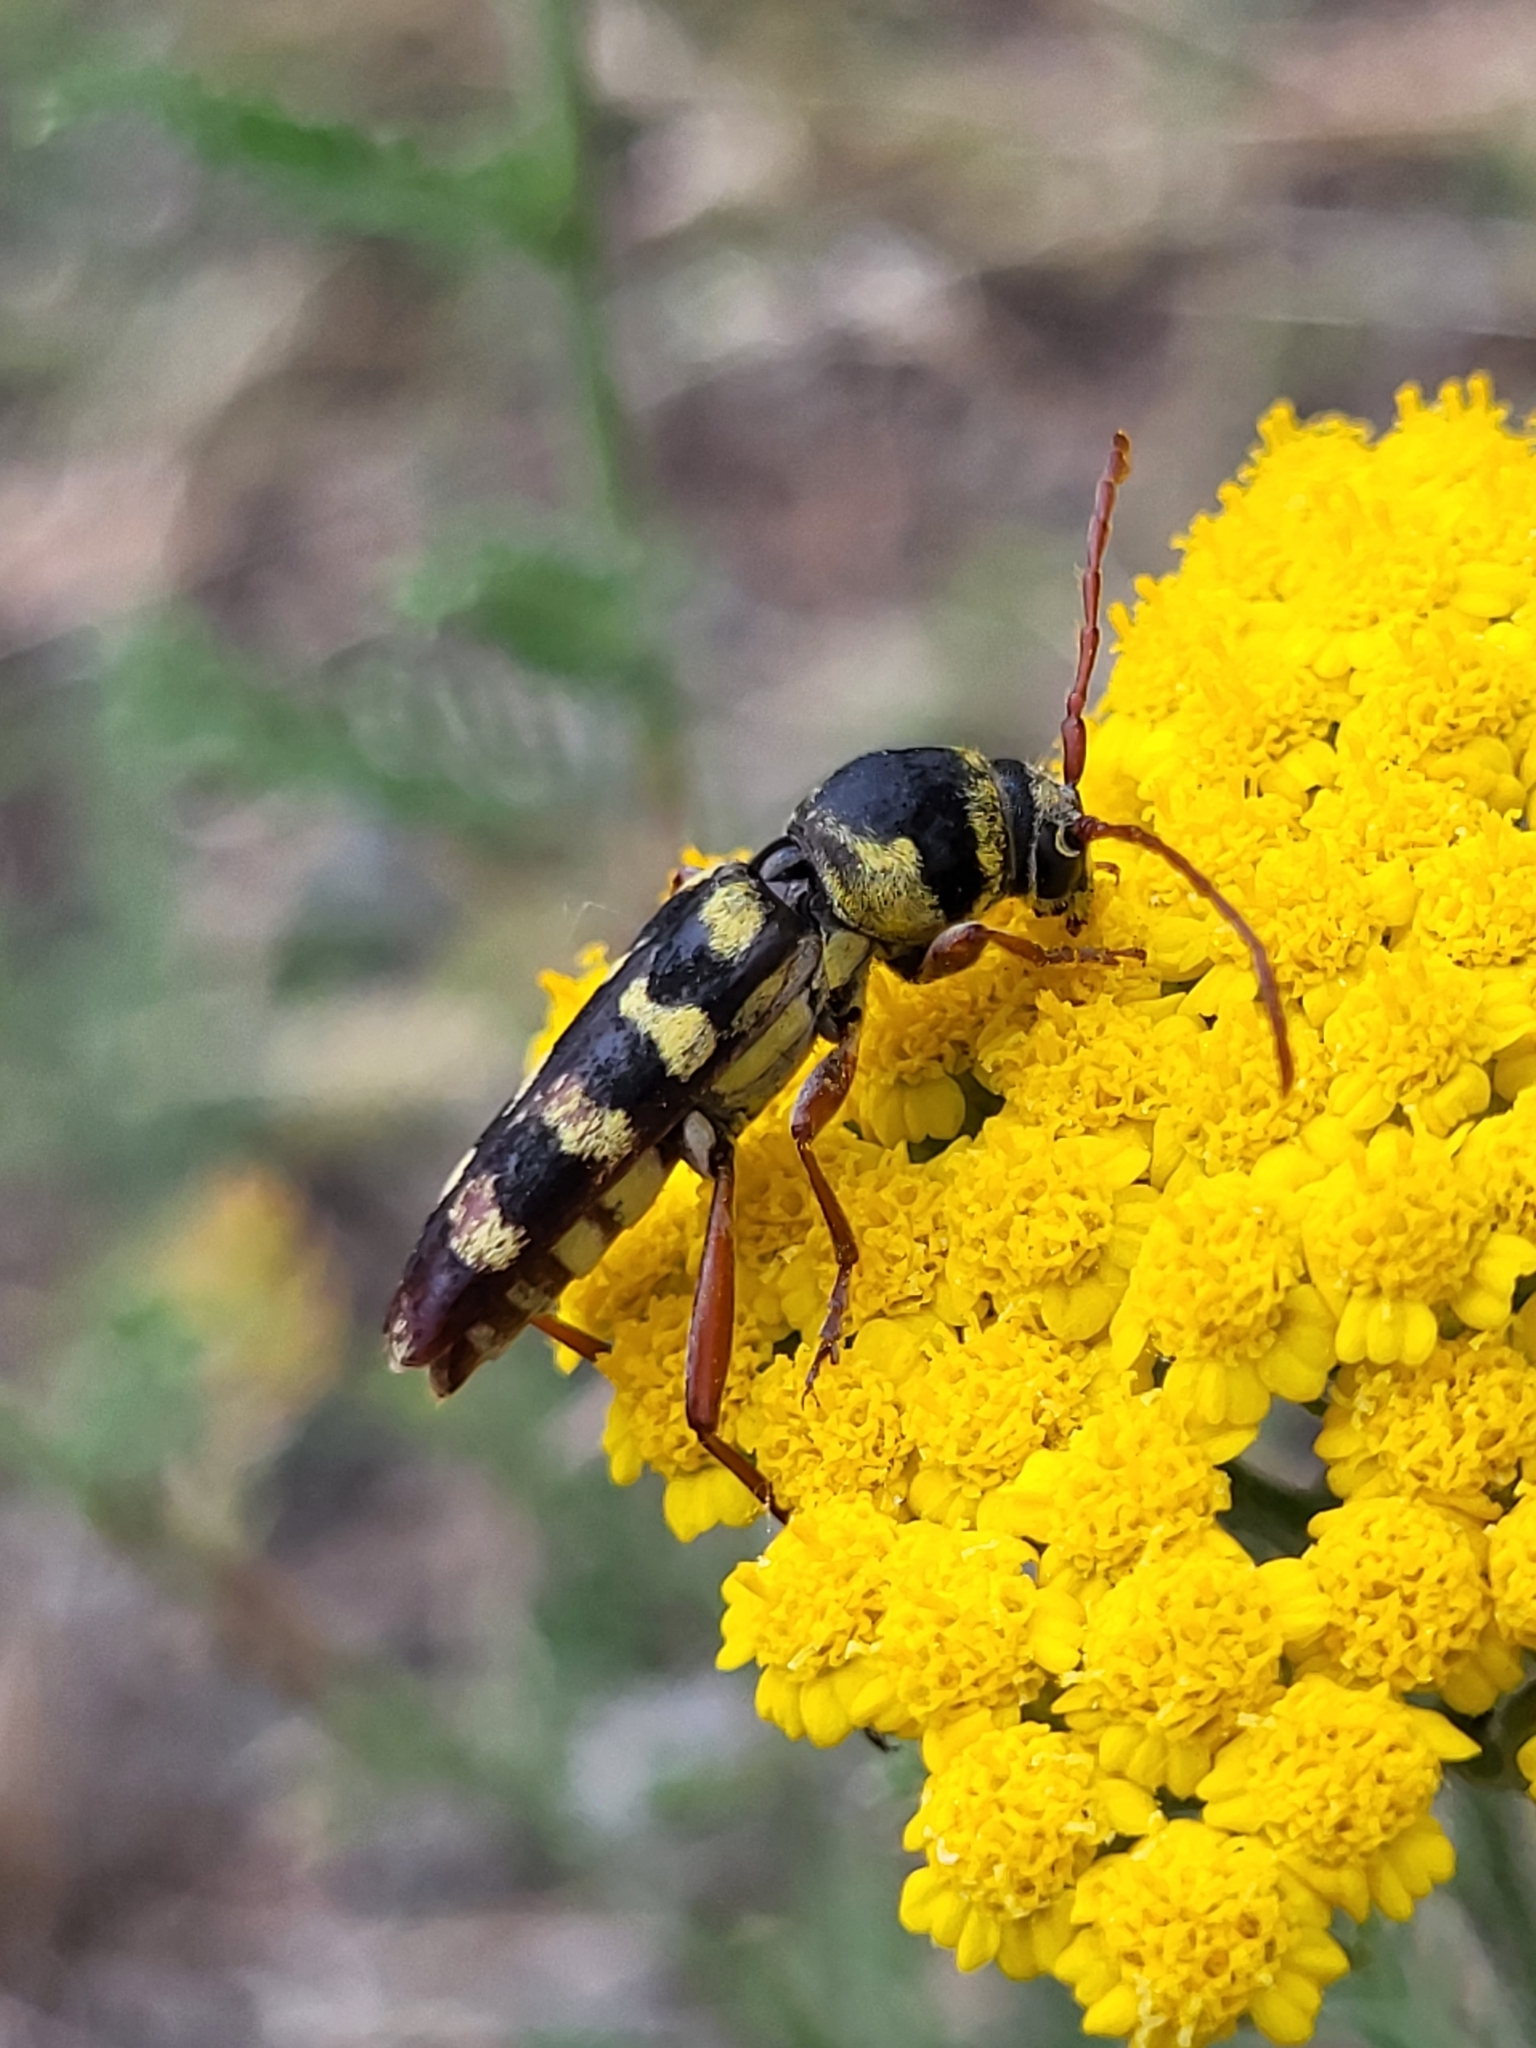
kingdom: Animalia
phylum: Arthropoda
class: Insecta
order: Coleoptera
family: Cerambycidae
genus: Plagionotus
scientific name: Plagionotus floralis
